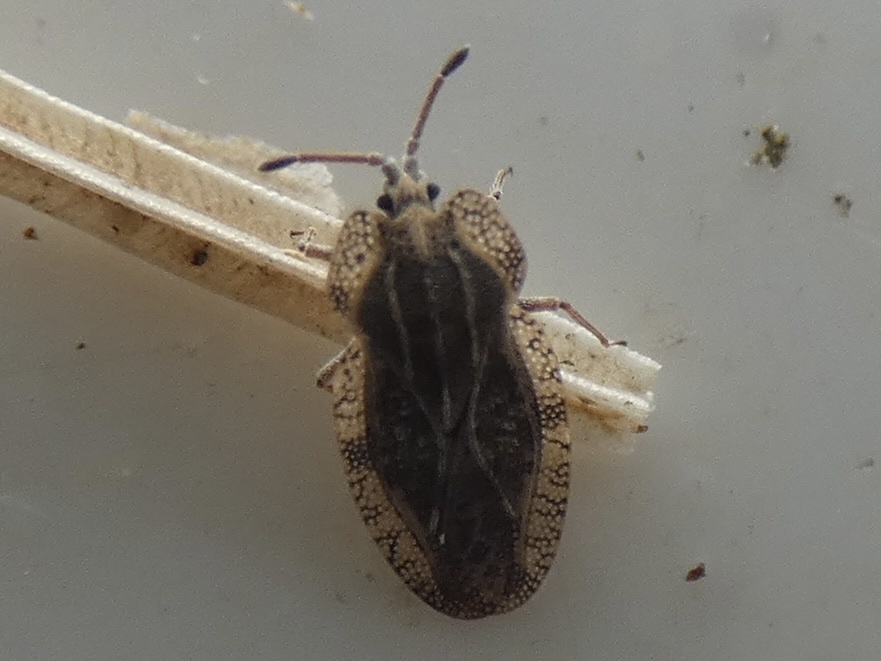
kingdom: Animalia
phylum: Arthropoda
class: Insecta
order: Hemiptera
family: Tingidae
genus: Tingis
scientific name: Tingis ampliata
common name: Creeping thistle lacebug
